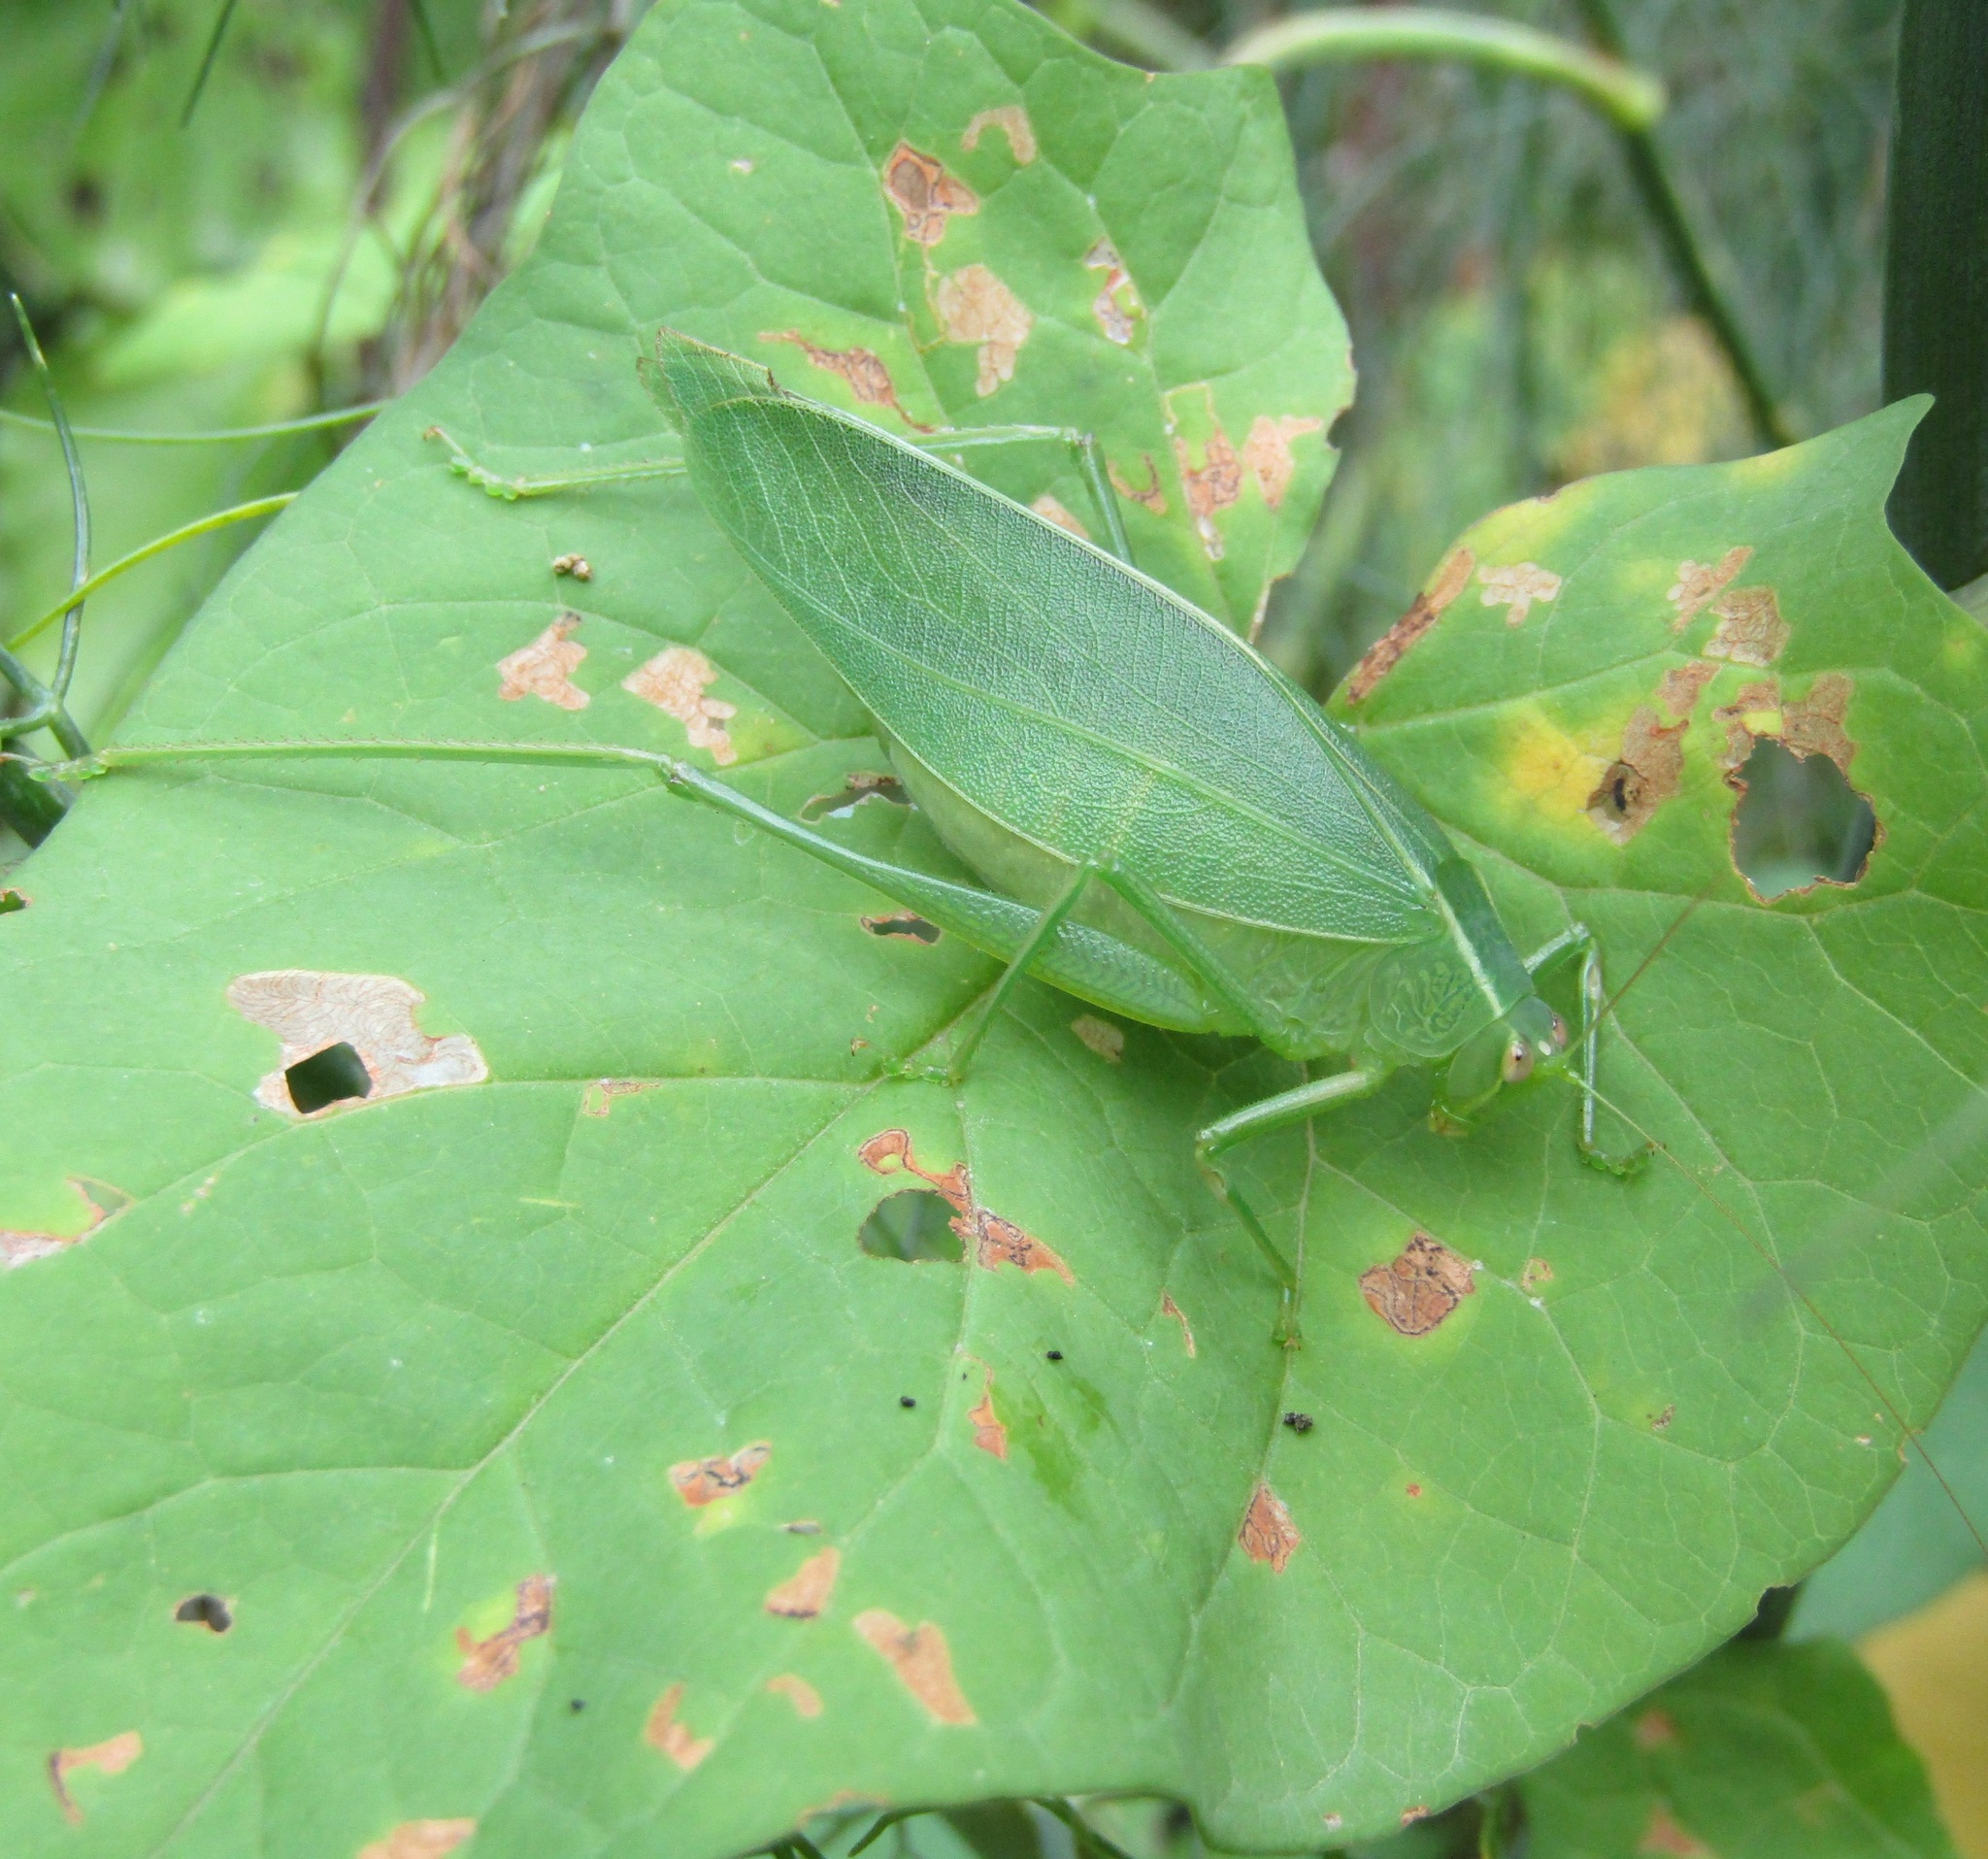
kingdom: Animalia
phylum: Arthropoda
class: Insecta
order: Orthoptera
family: Tettigoniidae
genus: Caedicia
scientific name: Caedicia simplex
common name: Common garden katydid
